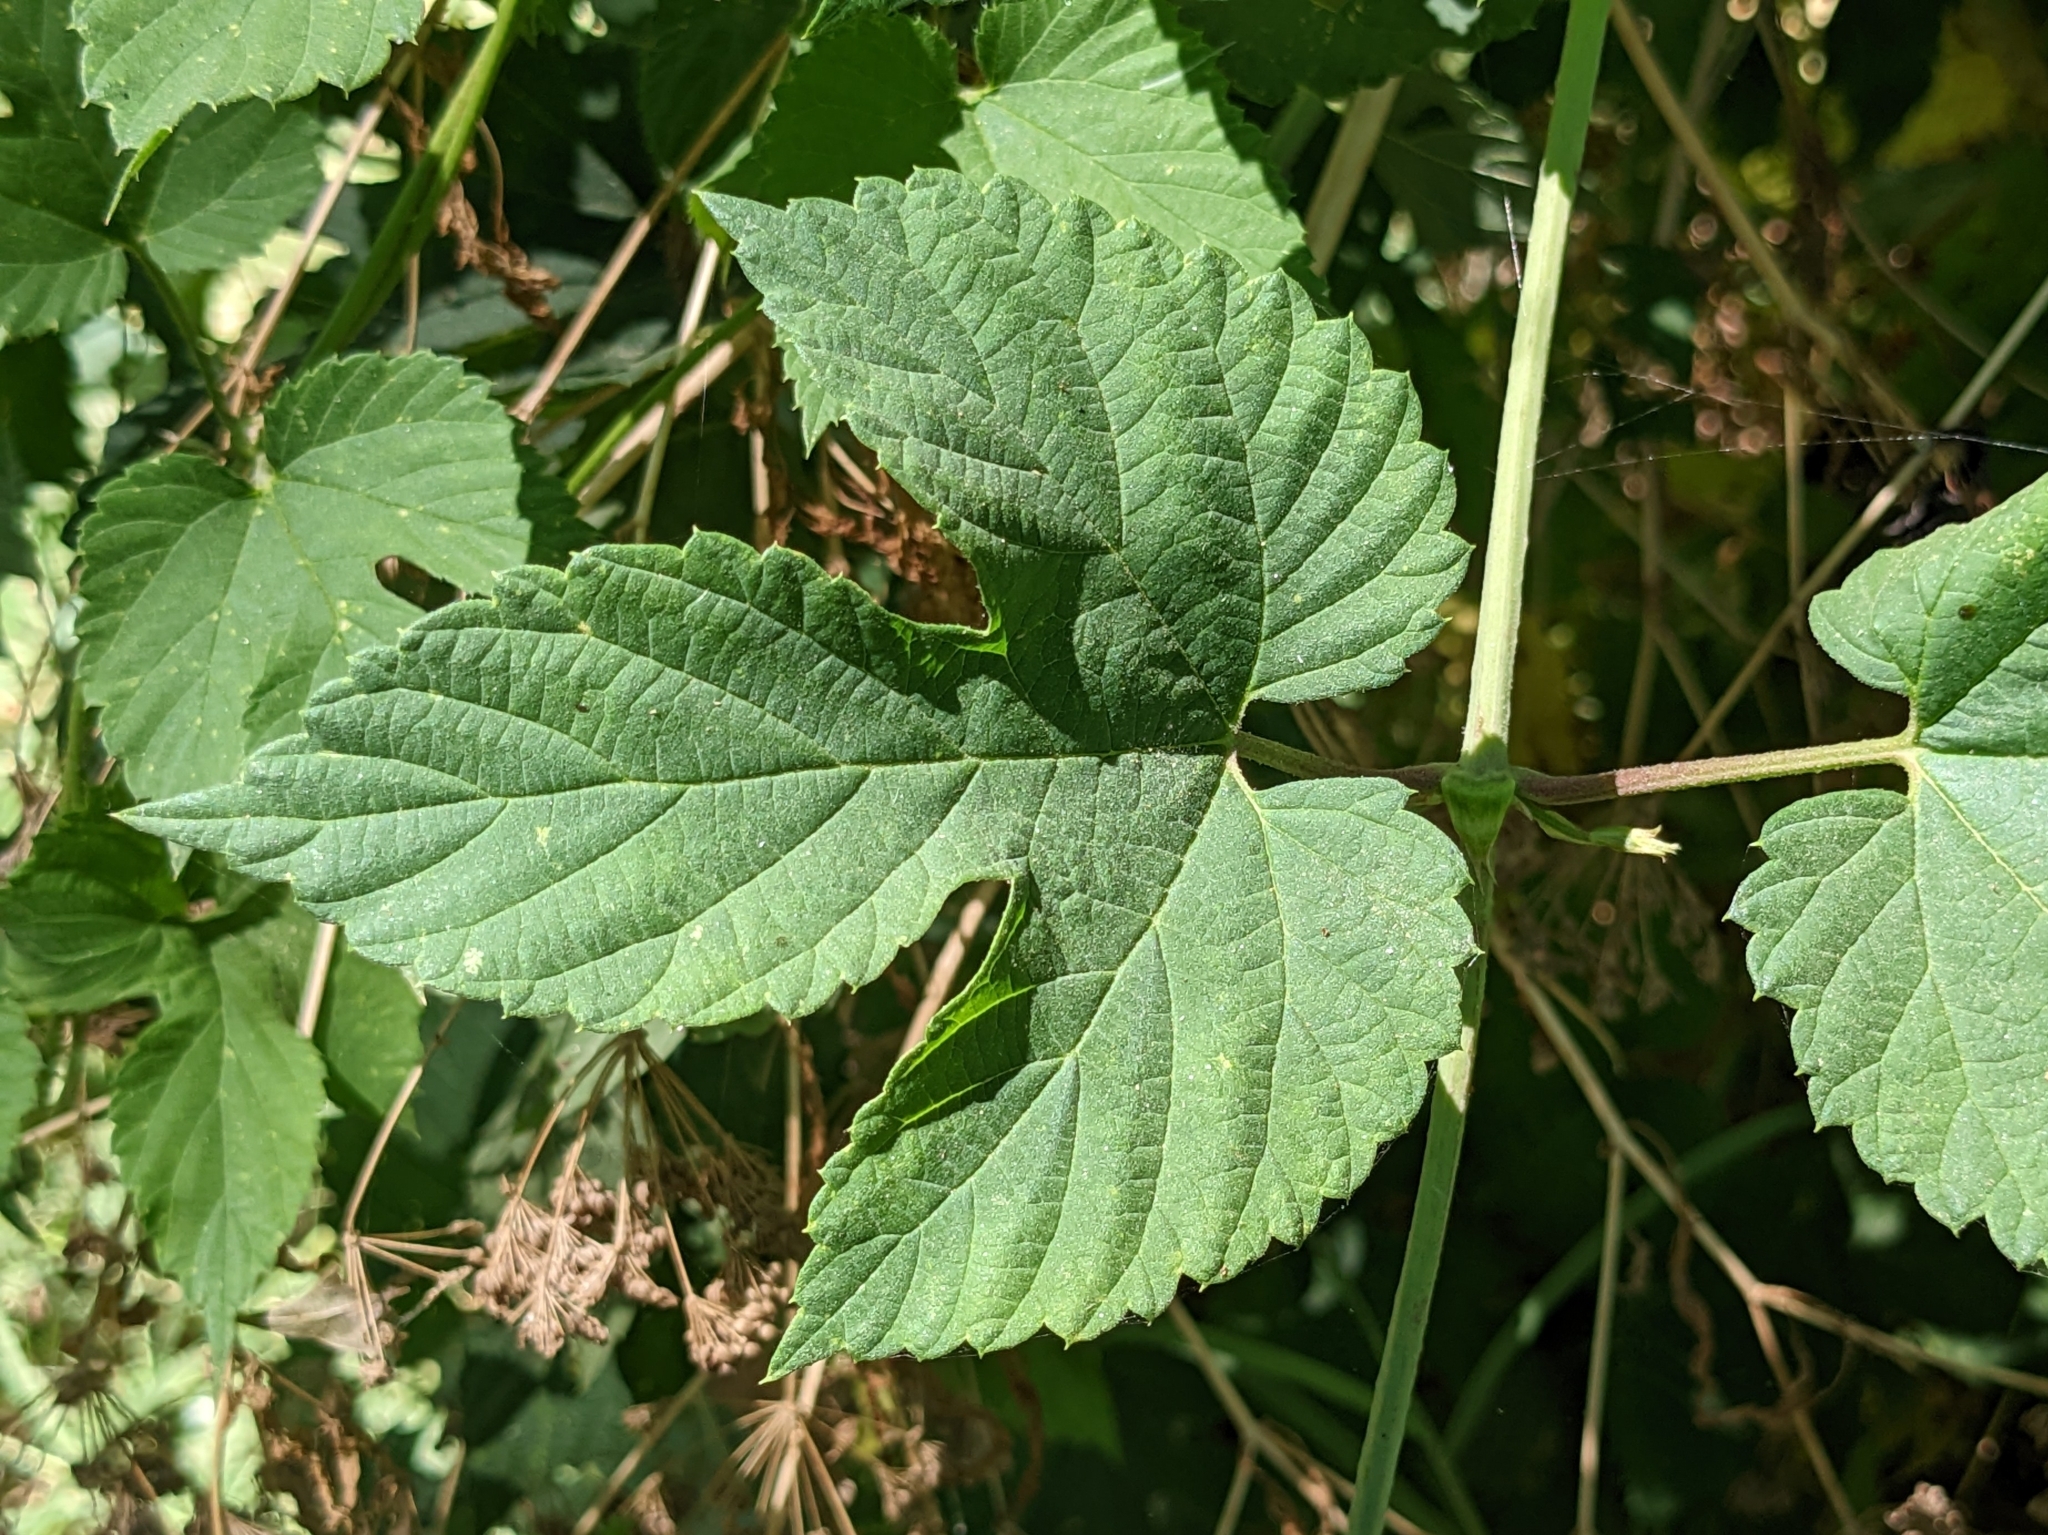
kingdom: Plantae
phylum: Tracheophyta
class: Magnoliopsida
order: Rosales
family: Cannabaceae
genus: Humulus
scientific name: Humulus lupulus
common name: Hop
